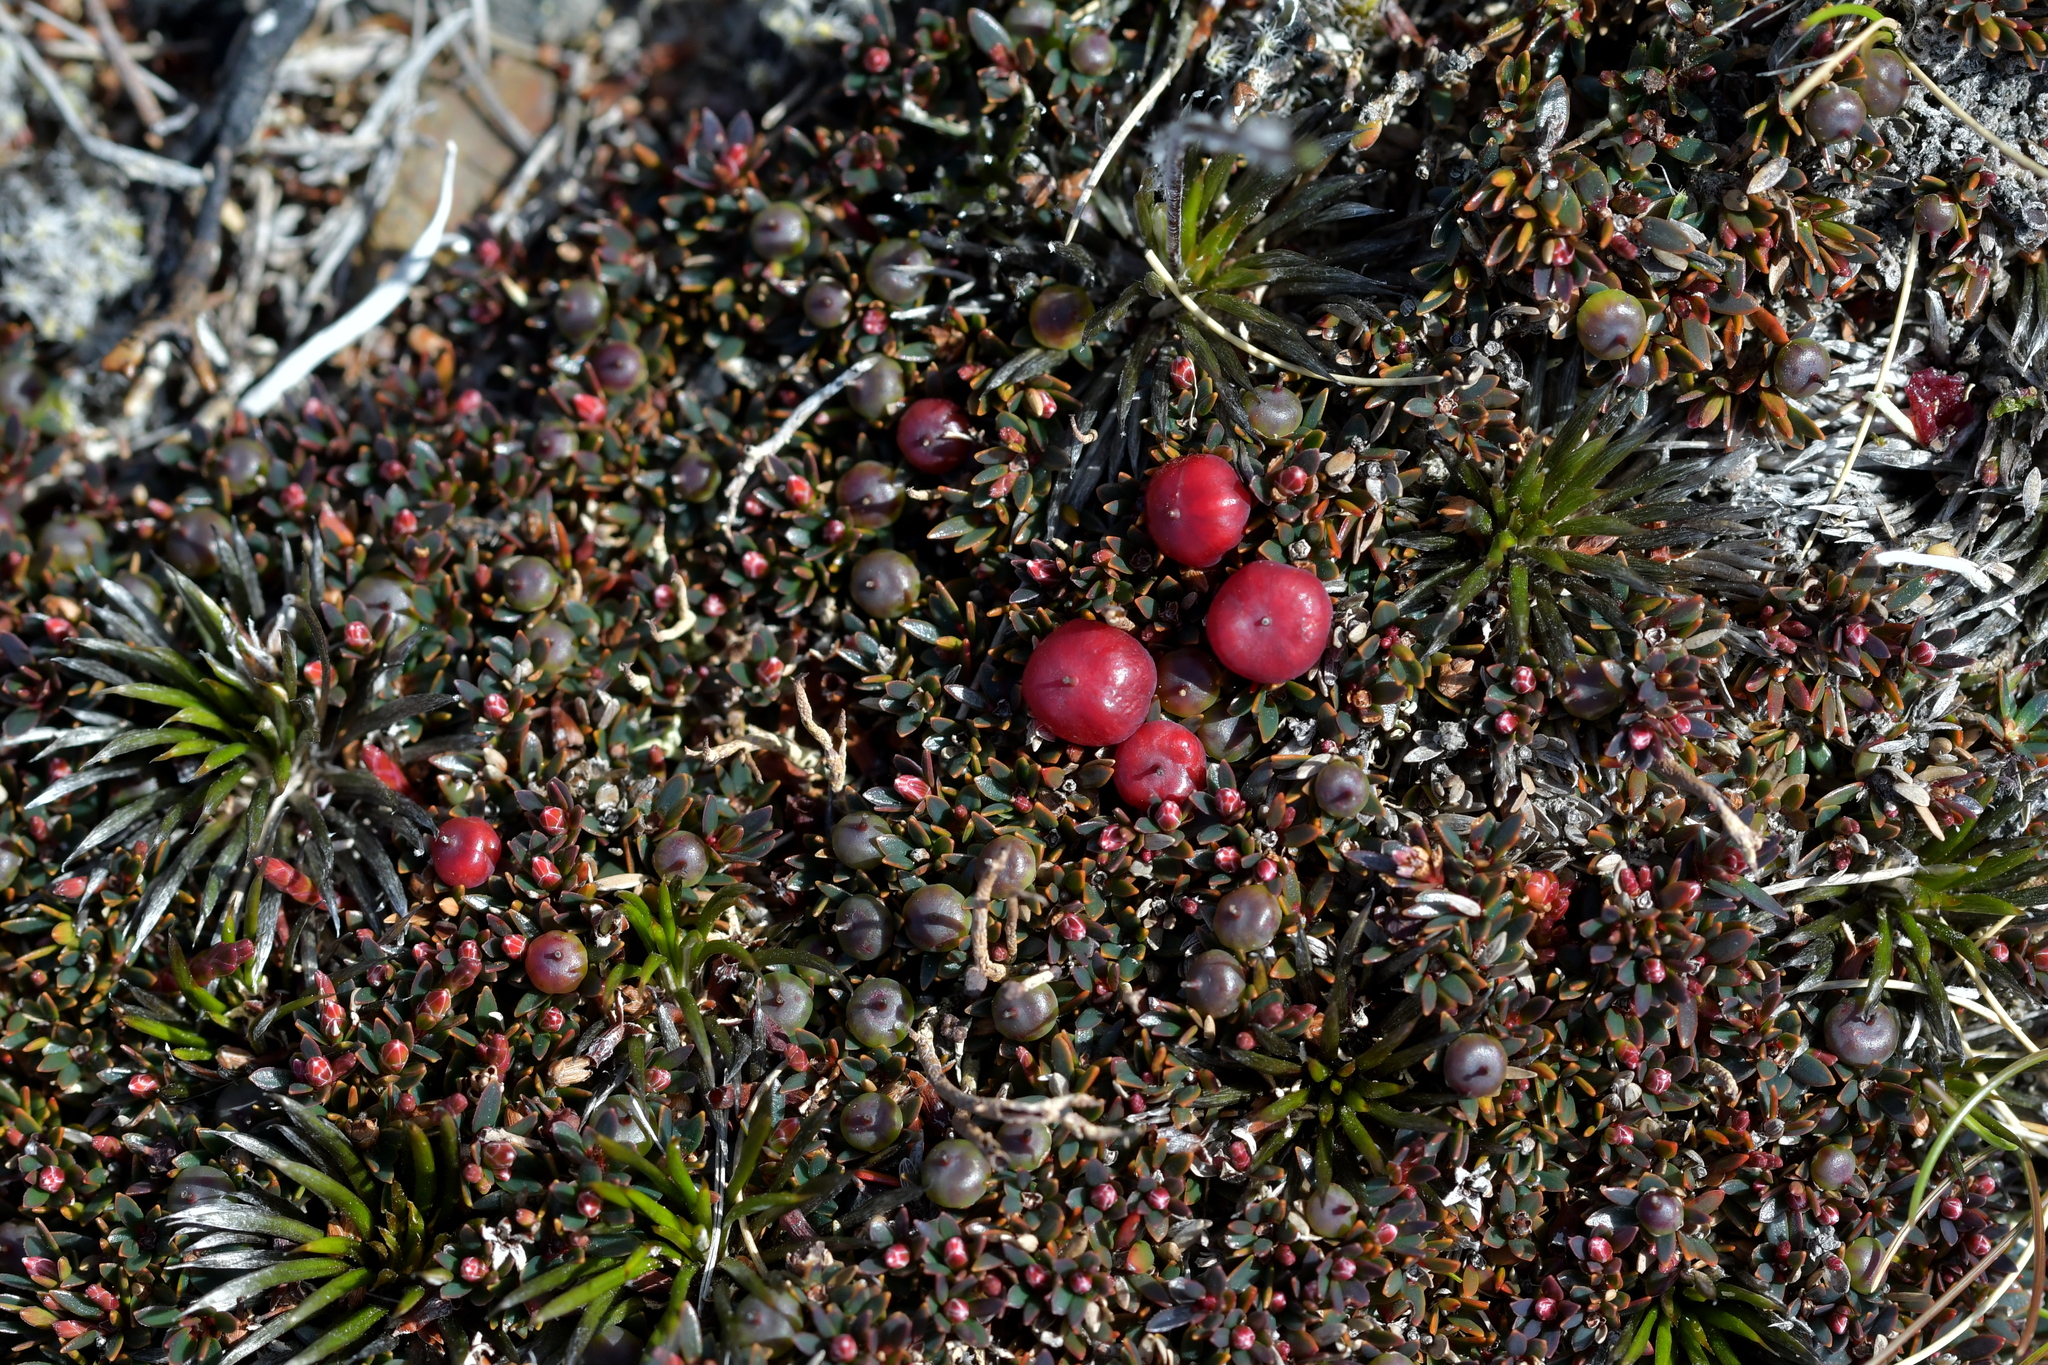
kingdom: Plantae
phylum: Tracheophyta
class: Magnoliopsida
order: Ericales
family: Ericaceae
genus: Pentachondra
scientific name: Pentachondra pumila
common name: Carpet-heath
